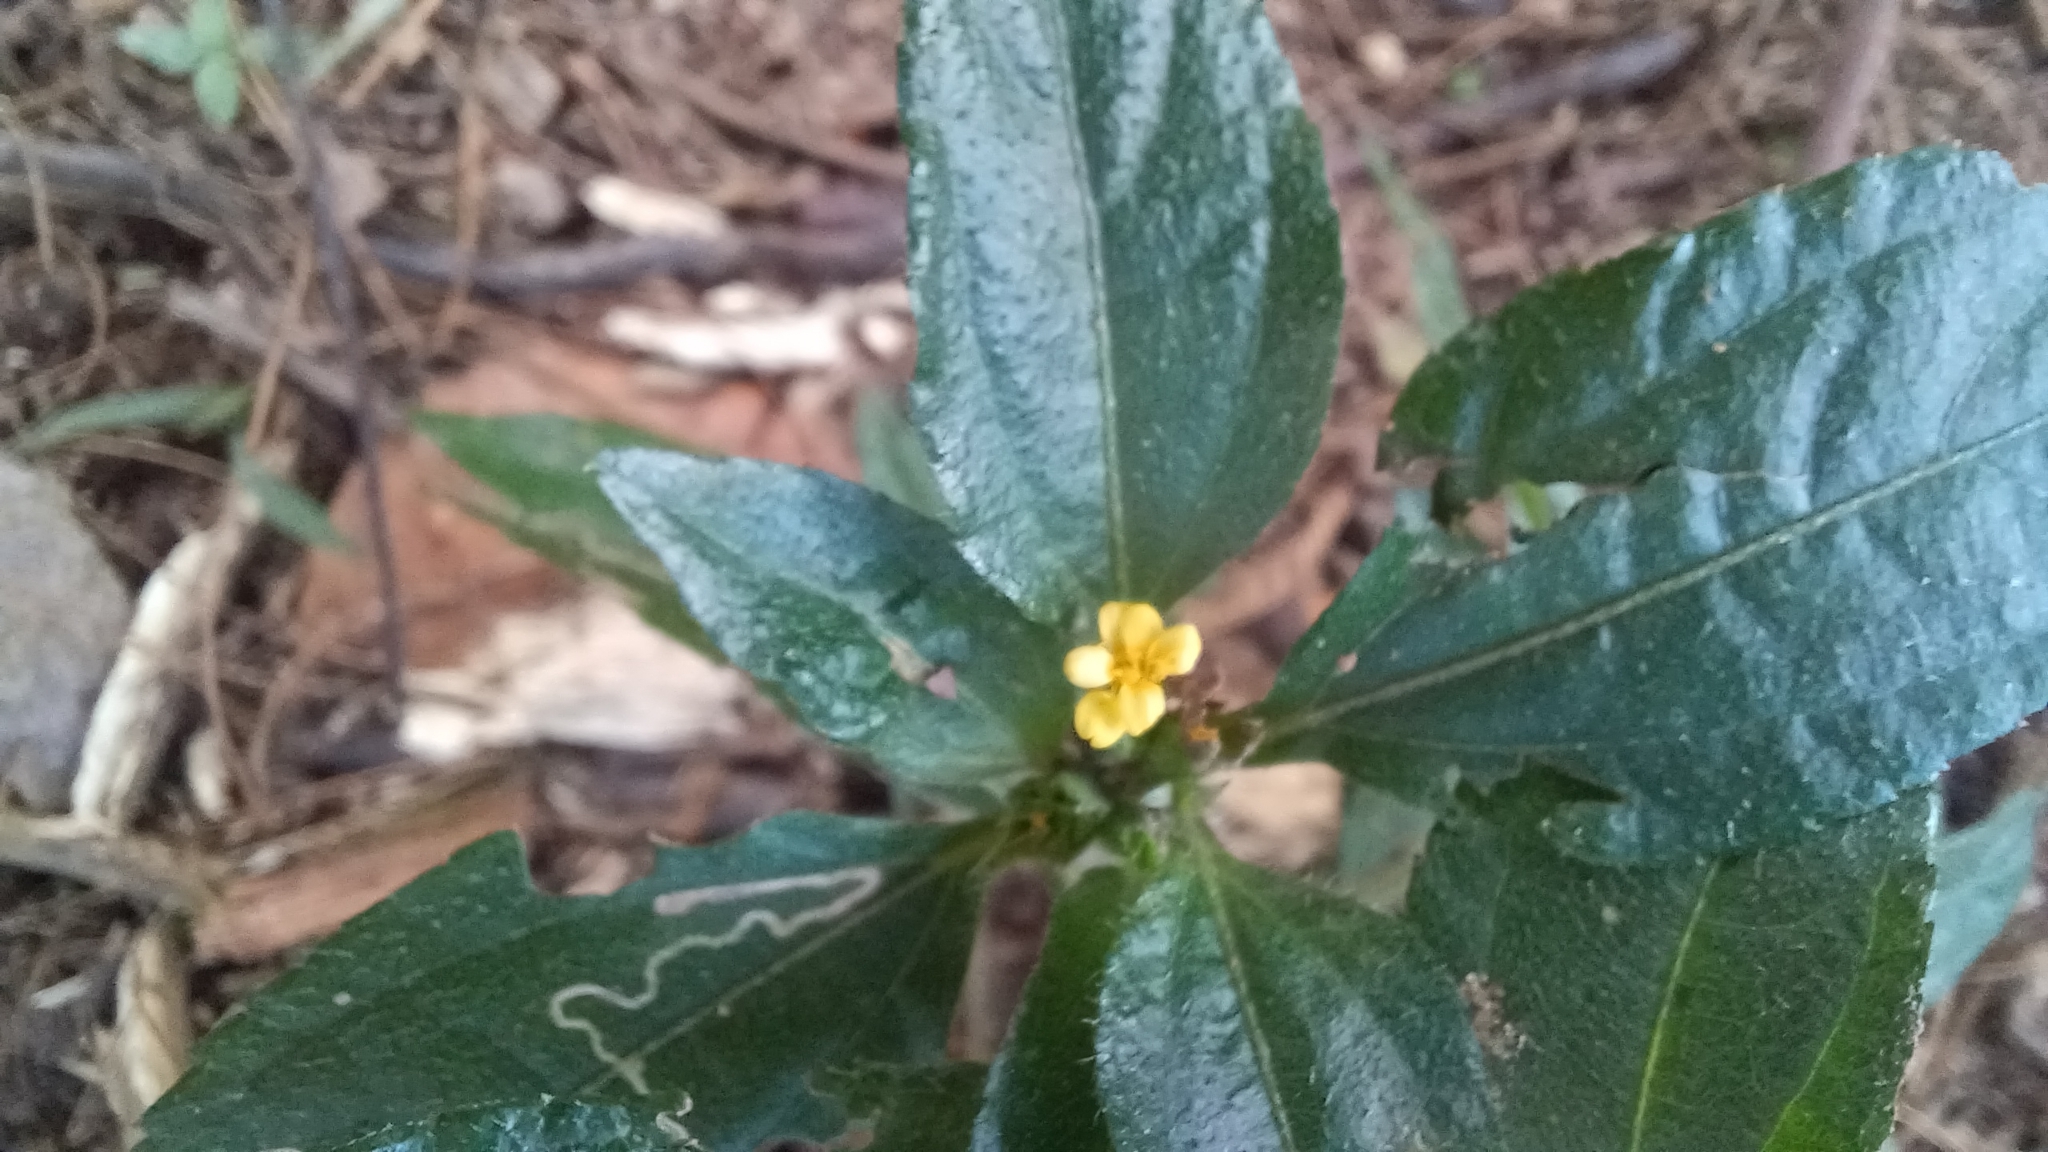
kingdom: Plantae
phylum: Tracheophyta
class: Magnoliopsida
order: Asterales
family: Asteraceae
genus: Synedrella
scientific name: Synedrella nodiflora
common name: Nodeweed
